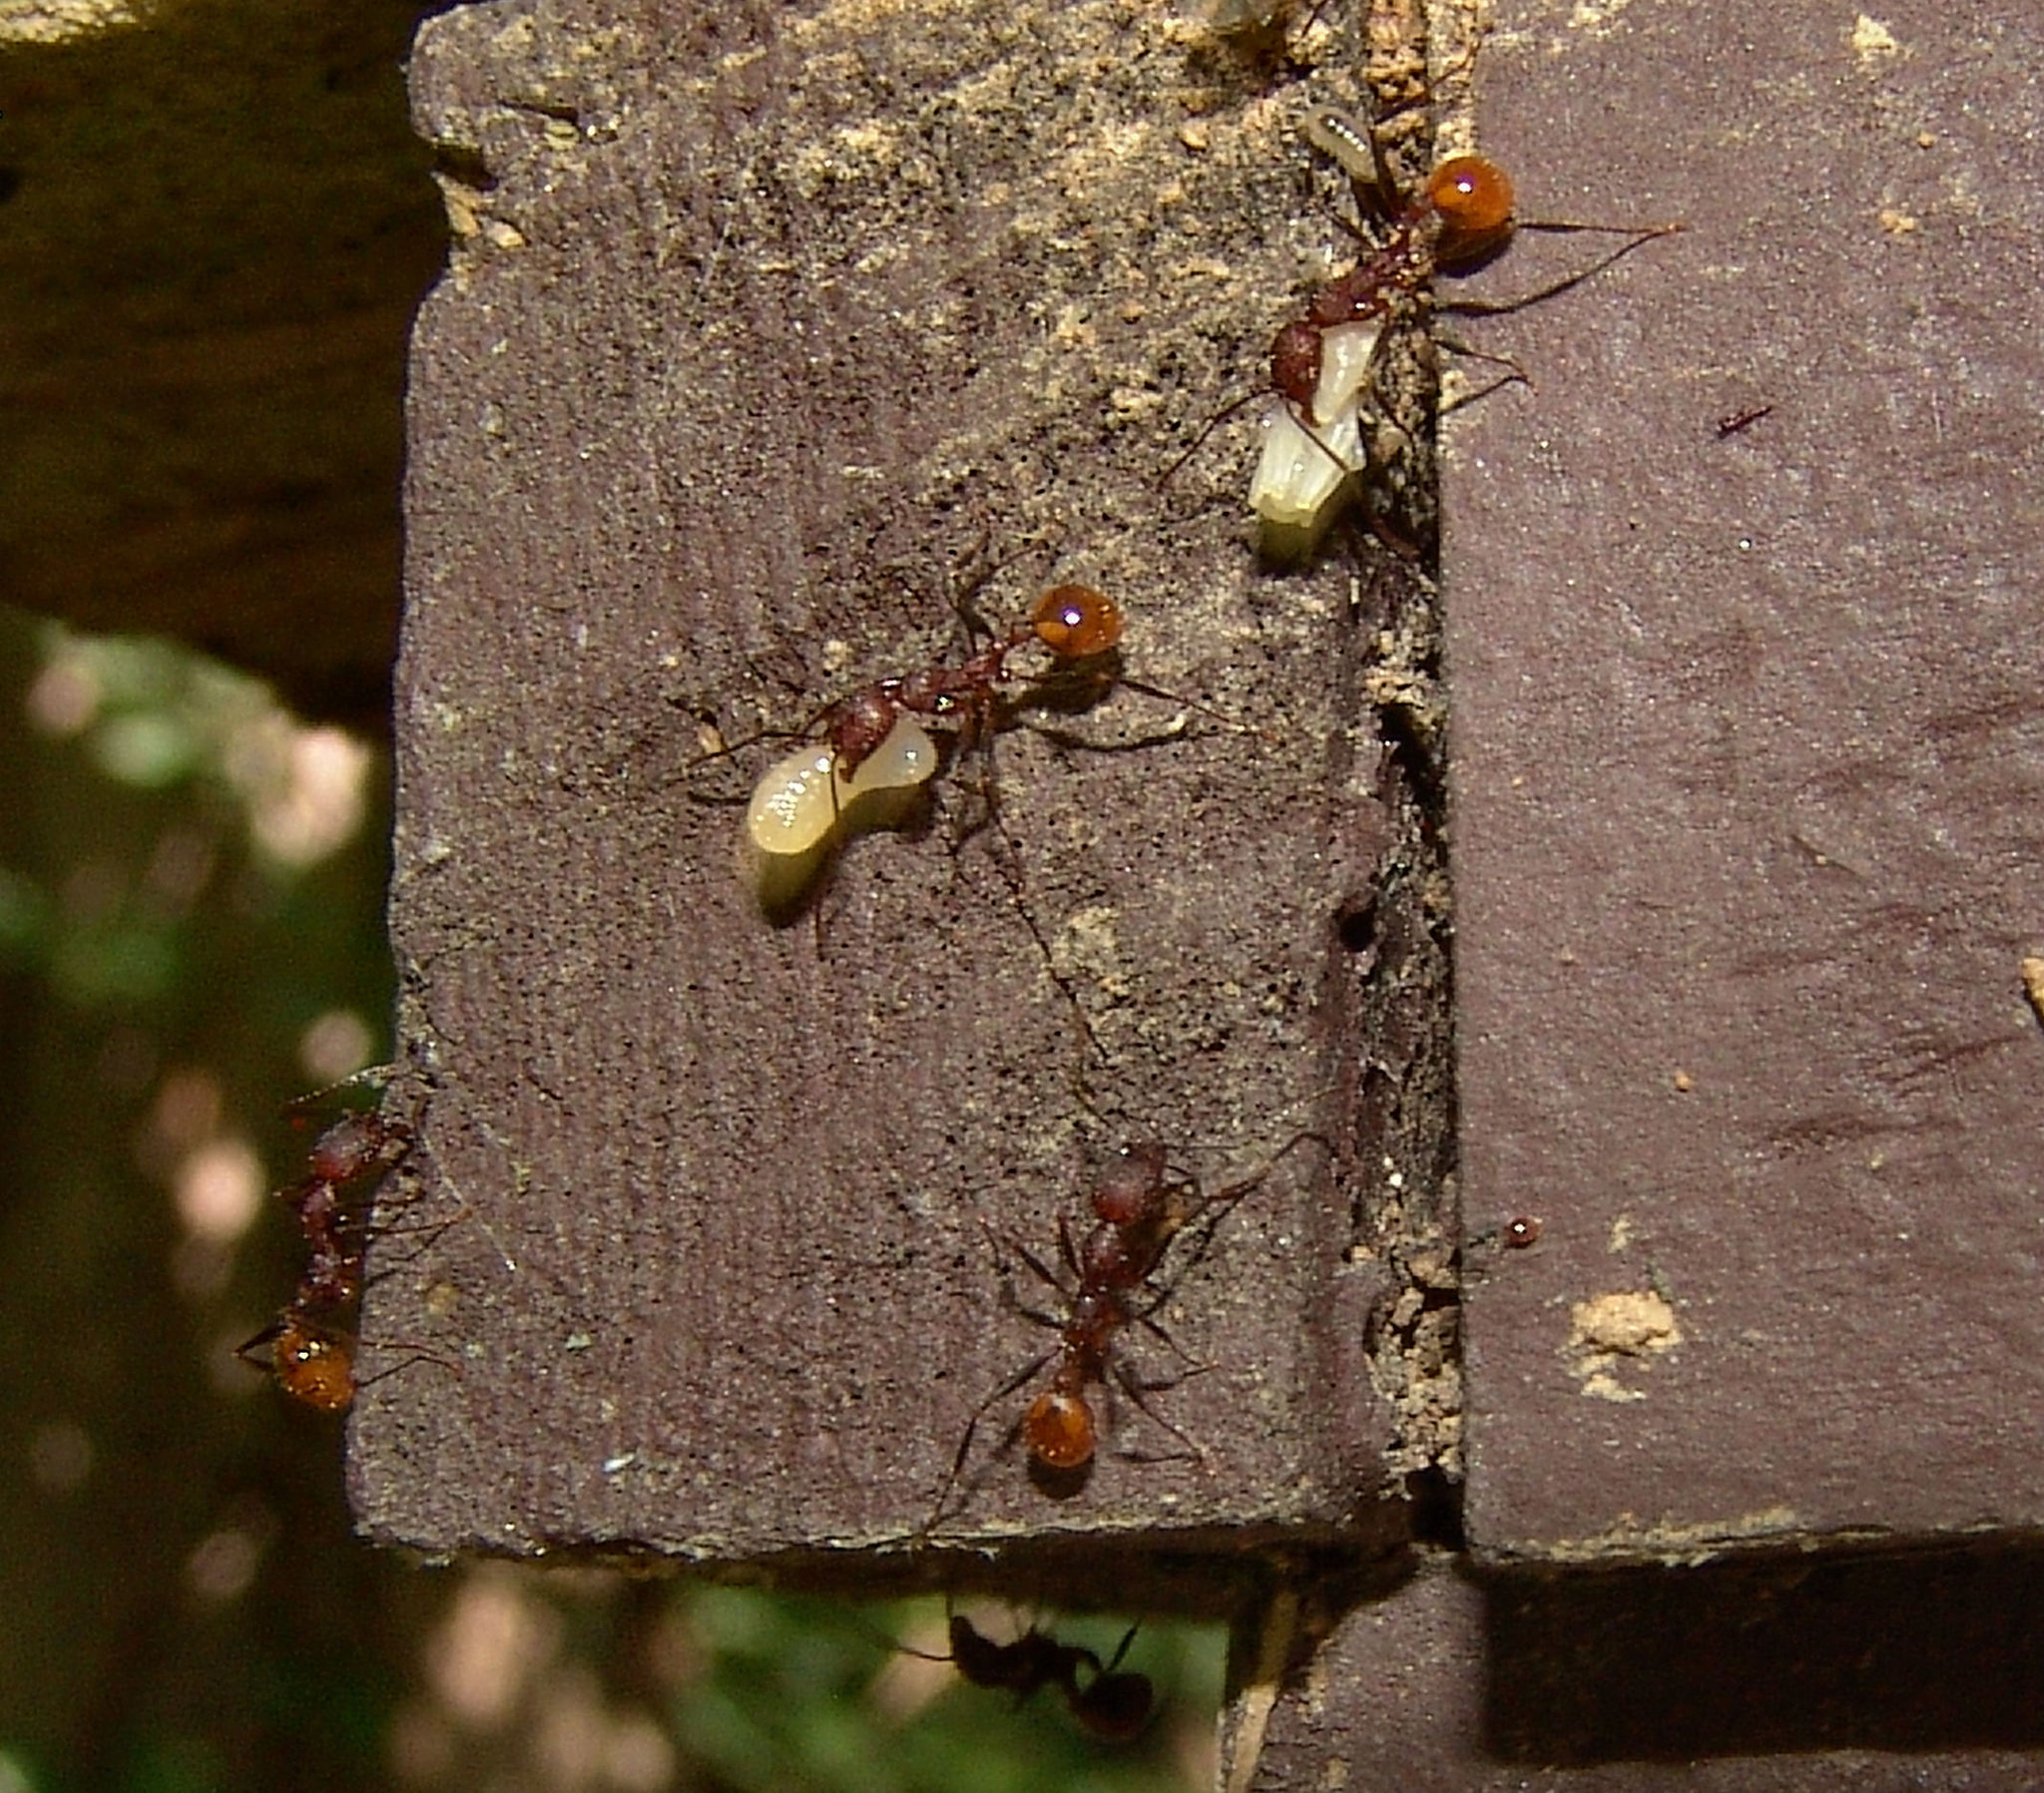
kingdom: Animalia
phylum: Arthropoda
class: Insecta
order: Hymenoptera
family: Formicidae
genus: Aphaenogaster
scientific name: Aphaenogaster lamellidens
